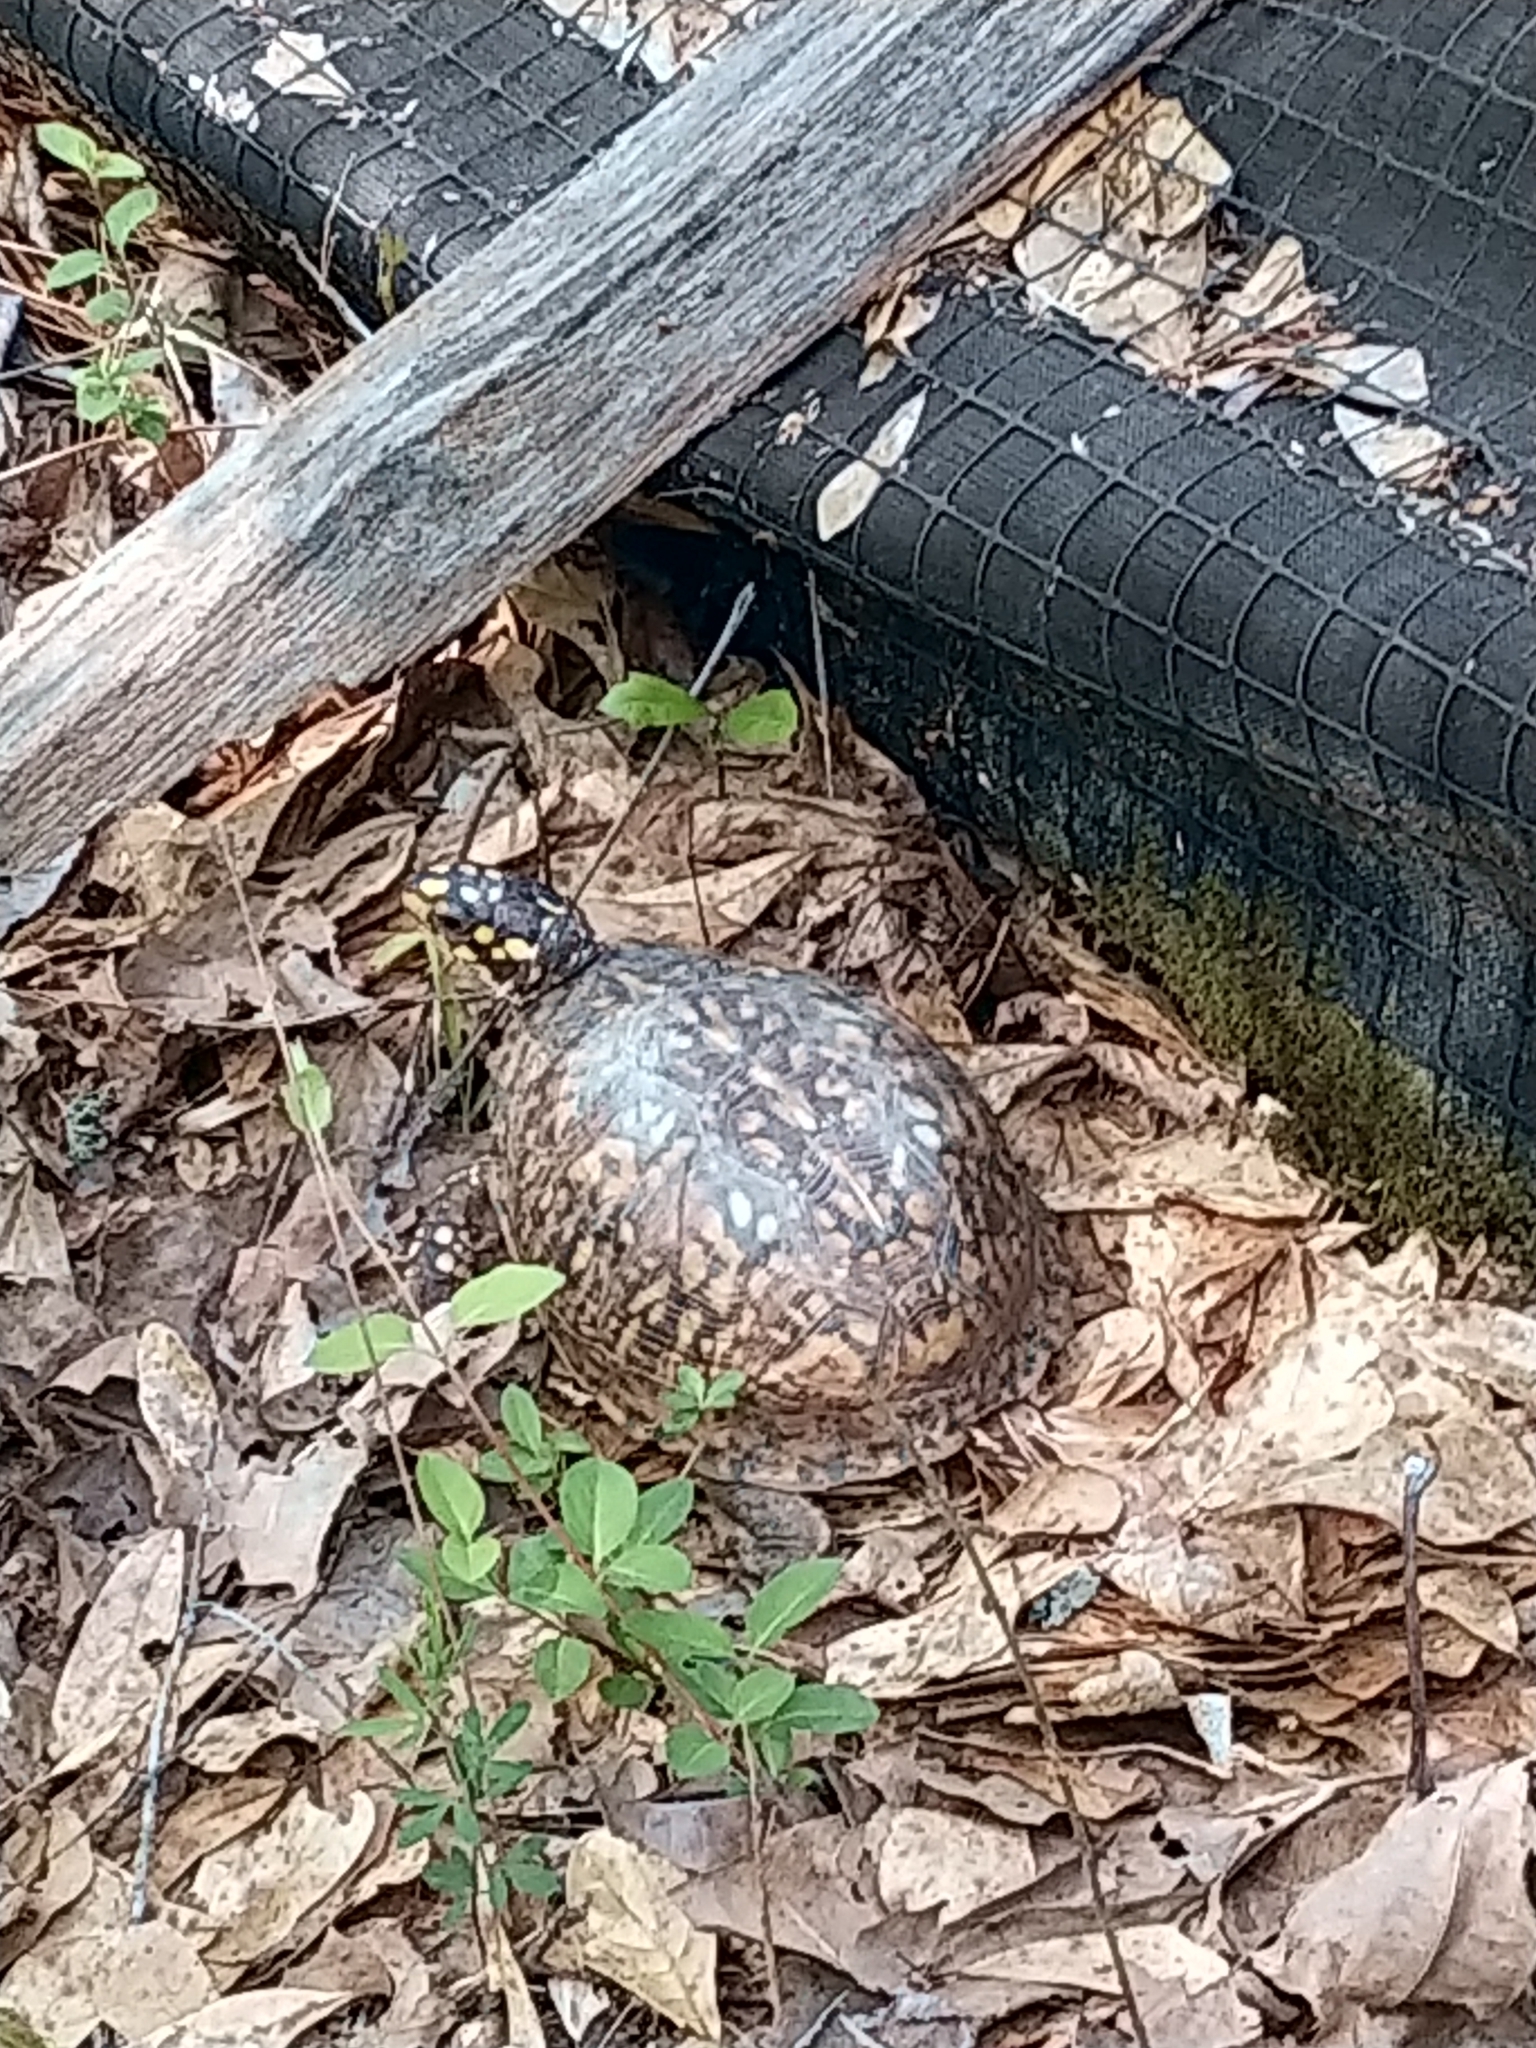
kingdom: Animalia
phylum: Chordata
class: Testudines
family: Emydidae
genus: Terrapene
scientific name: Terrapene carolina
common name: Common box turtle
